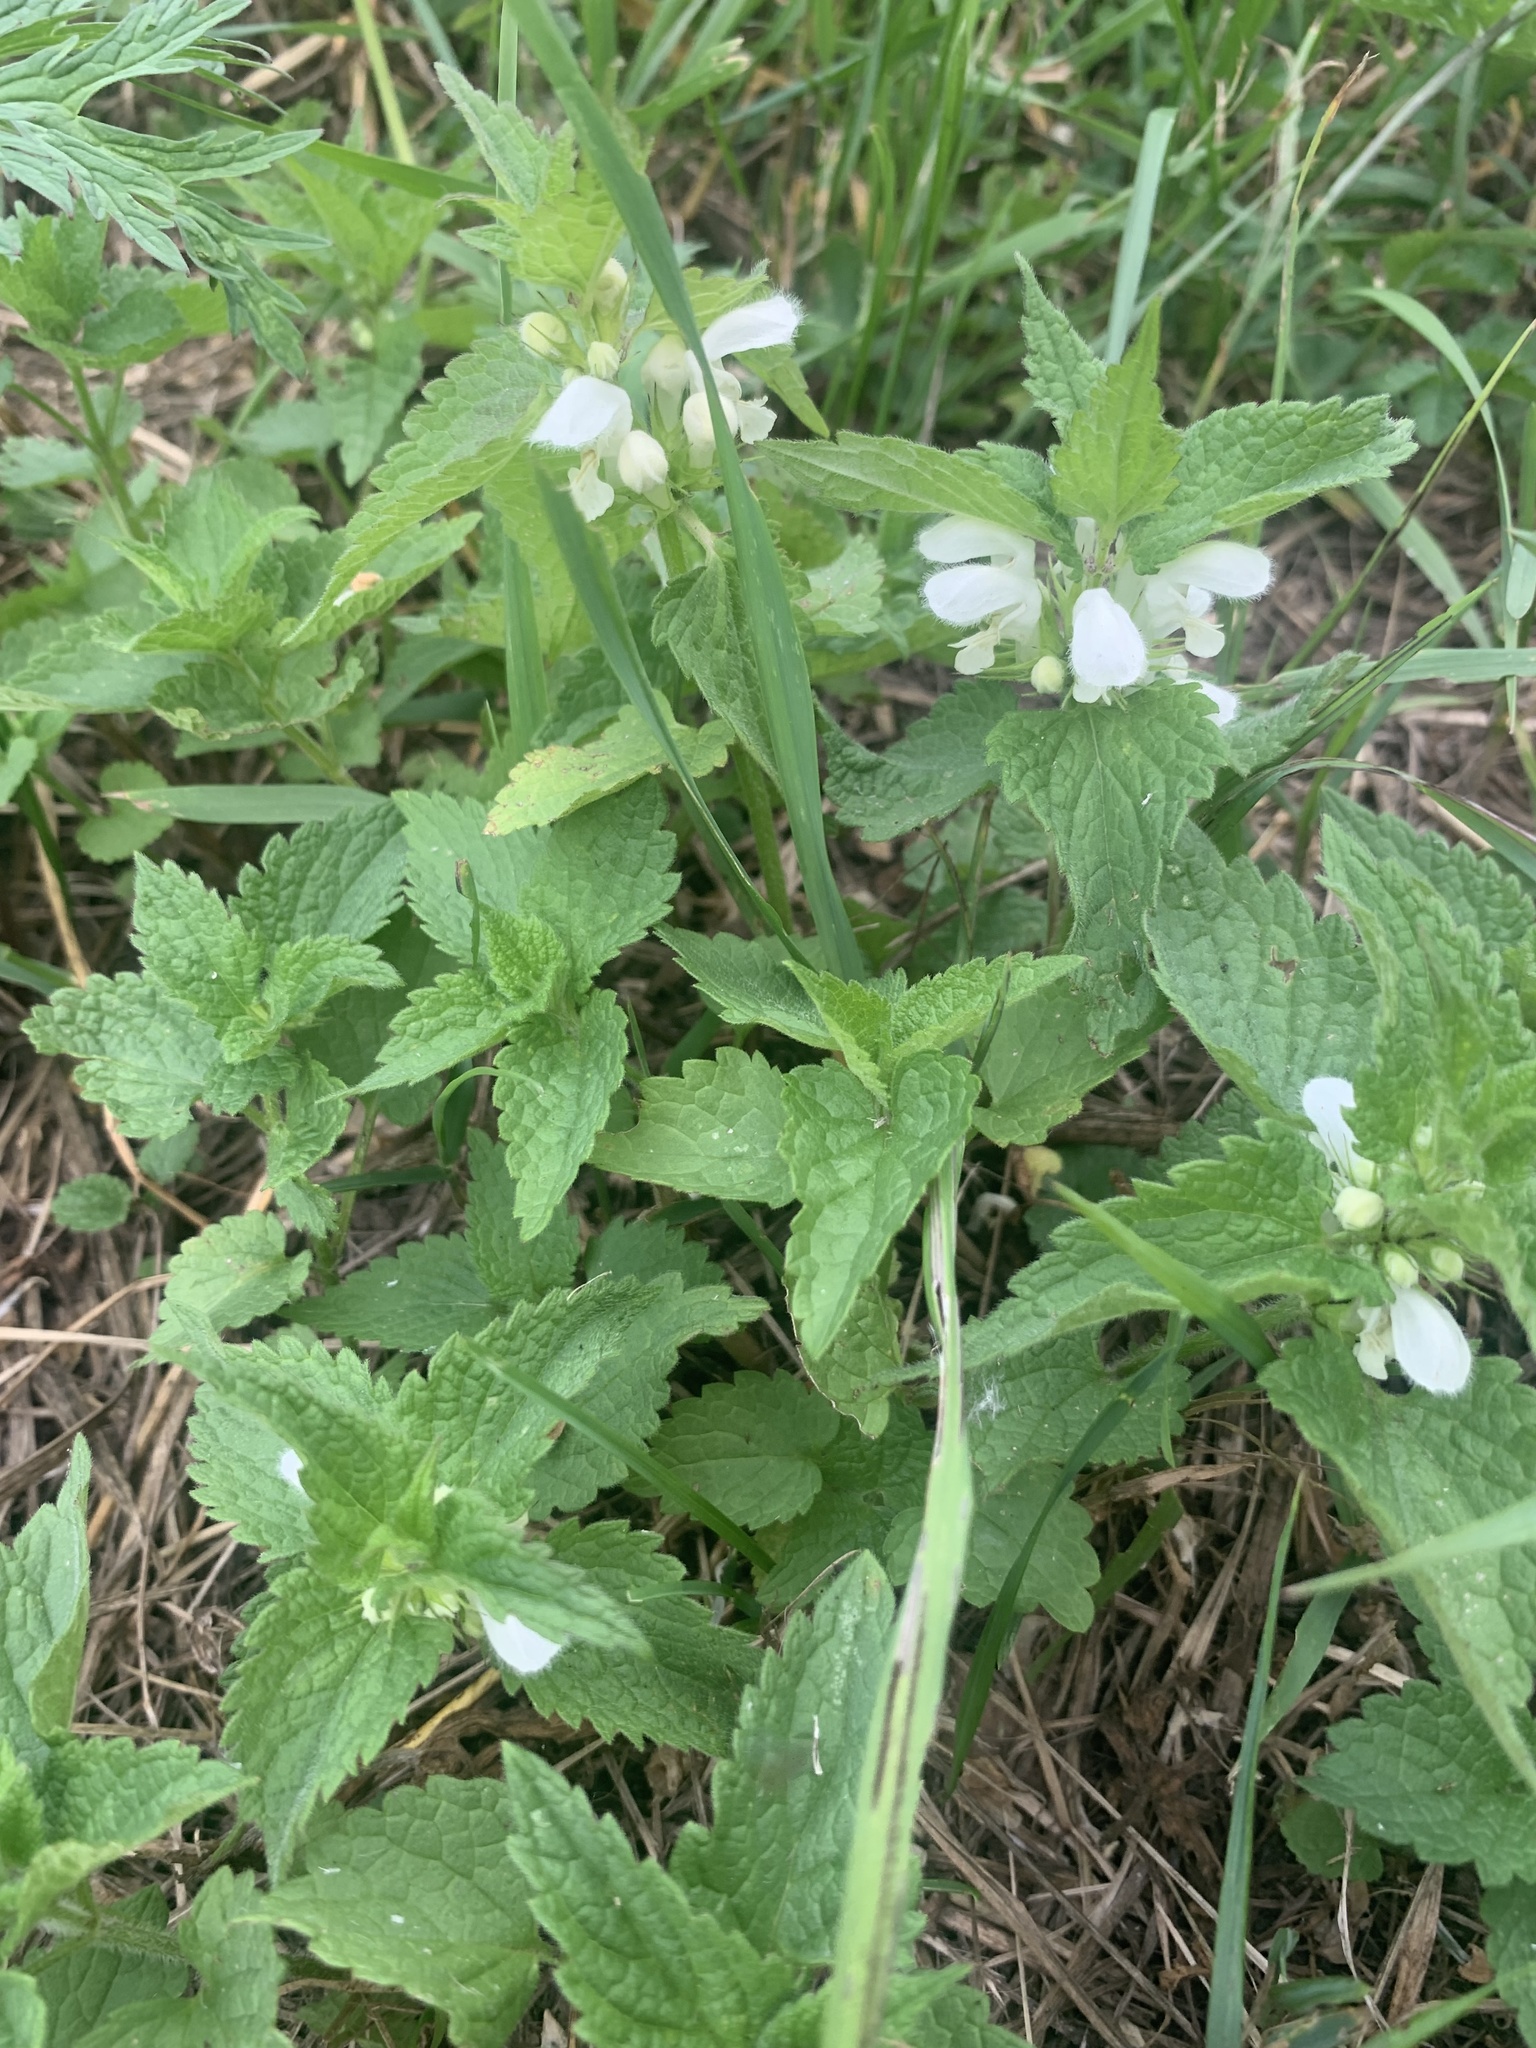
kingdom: Plantae
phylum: Tracheophyta
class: Magnoliopsida
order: Lamiales
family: Lamiaceae
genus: Lamium
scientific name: Lamium album
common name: White dead-nettle
